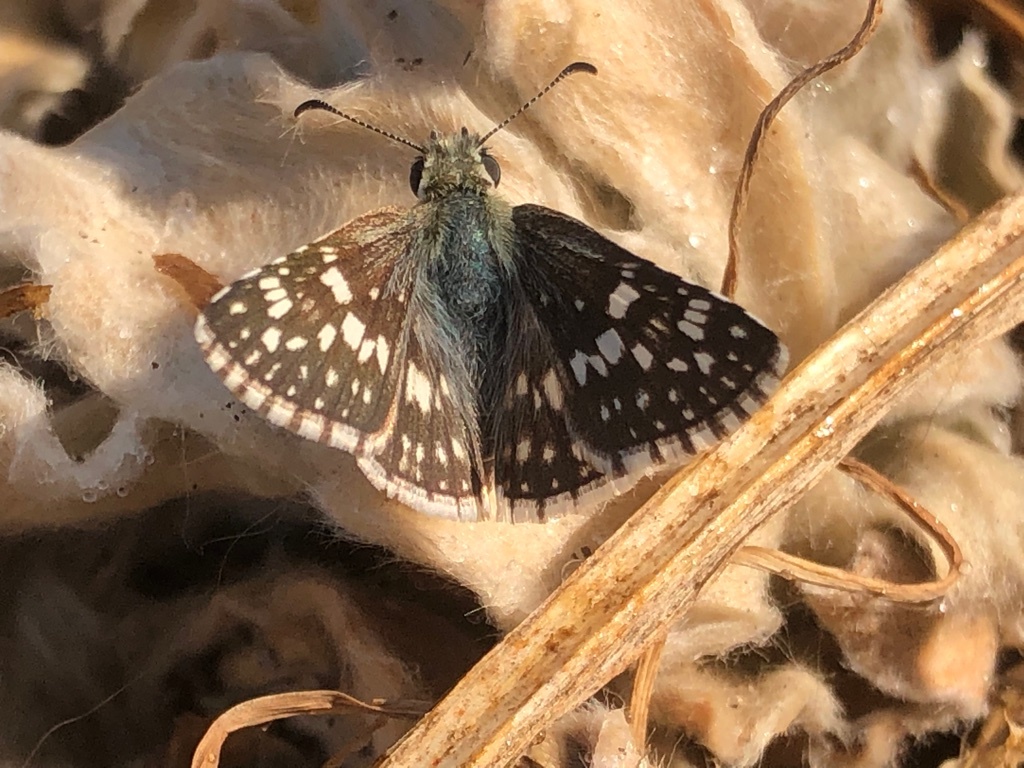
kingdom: Animalia
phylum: Arthropoda
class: Insecta
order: Lepidoptera
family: Hesperiidae
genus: Burnsius
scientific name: Burnsius communis
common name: Common checkered-skipper
